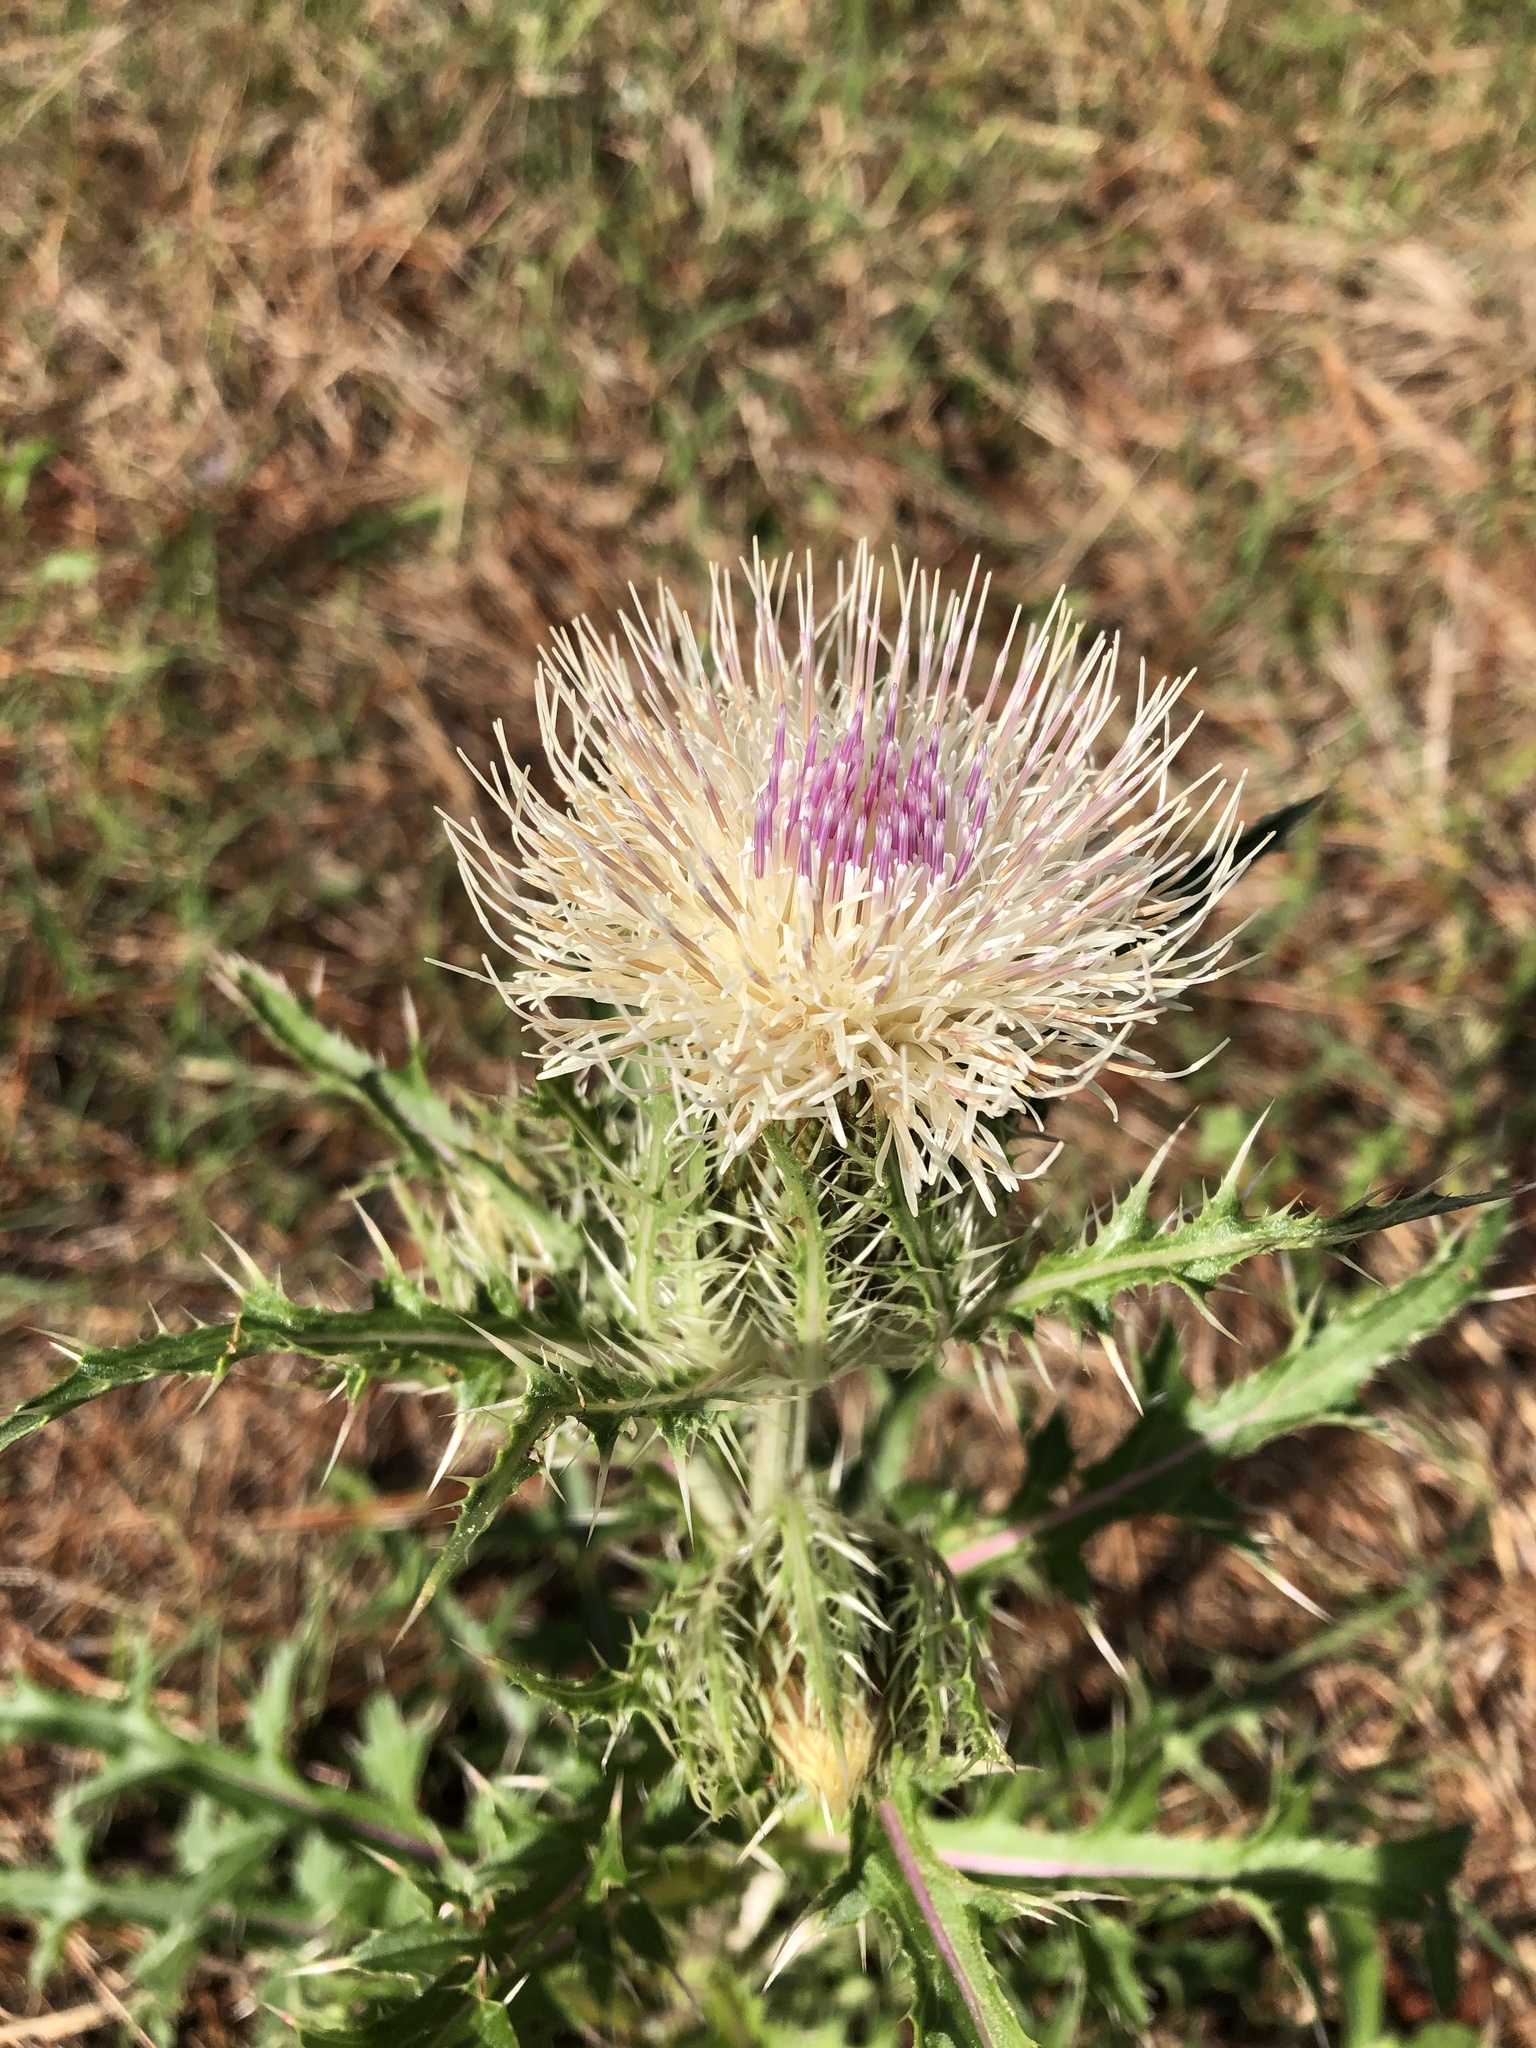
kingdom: Plantae
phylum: Tracheophyta
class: Magnoliopsida
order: Asterales
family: Asteraceae
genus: Cirsium
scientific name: Cirsium horridulum
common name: Bristly thistle
